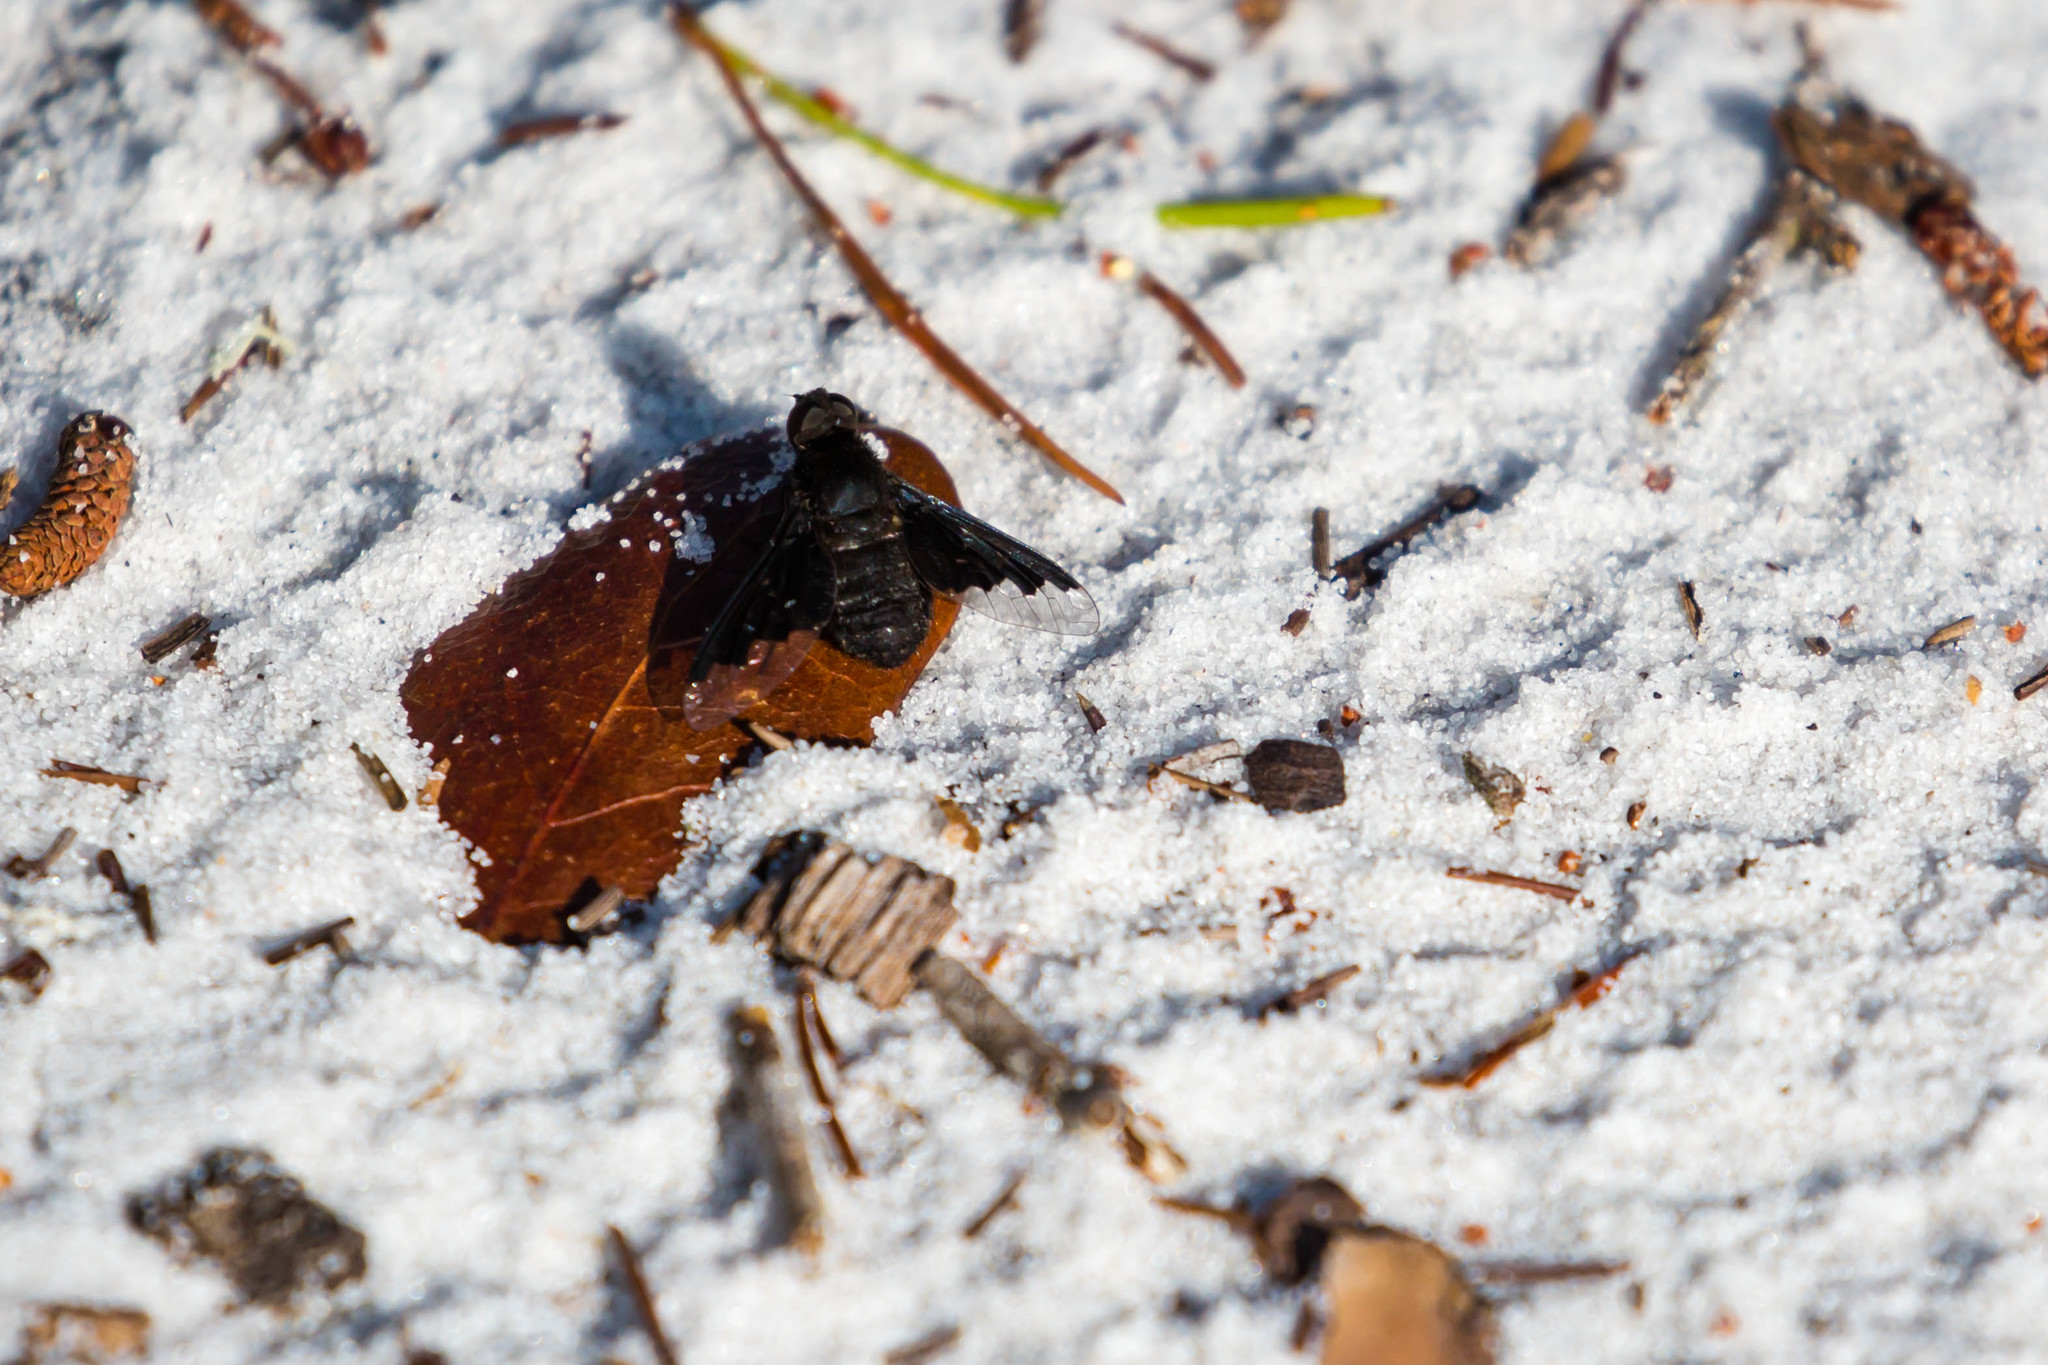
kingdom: Animalia
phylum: Arthropoda
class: Insecta
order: Diptera
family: Bombyliidae
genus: Anthrax
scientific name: Anthrax analis
